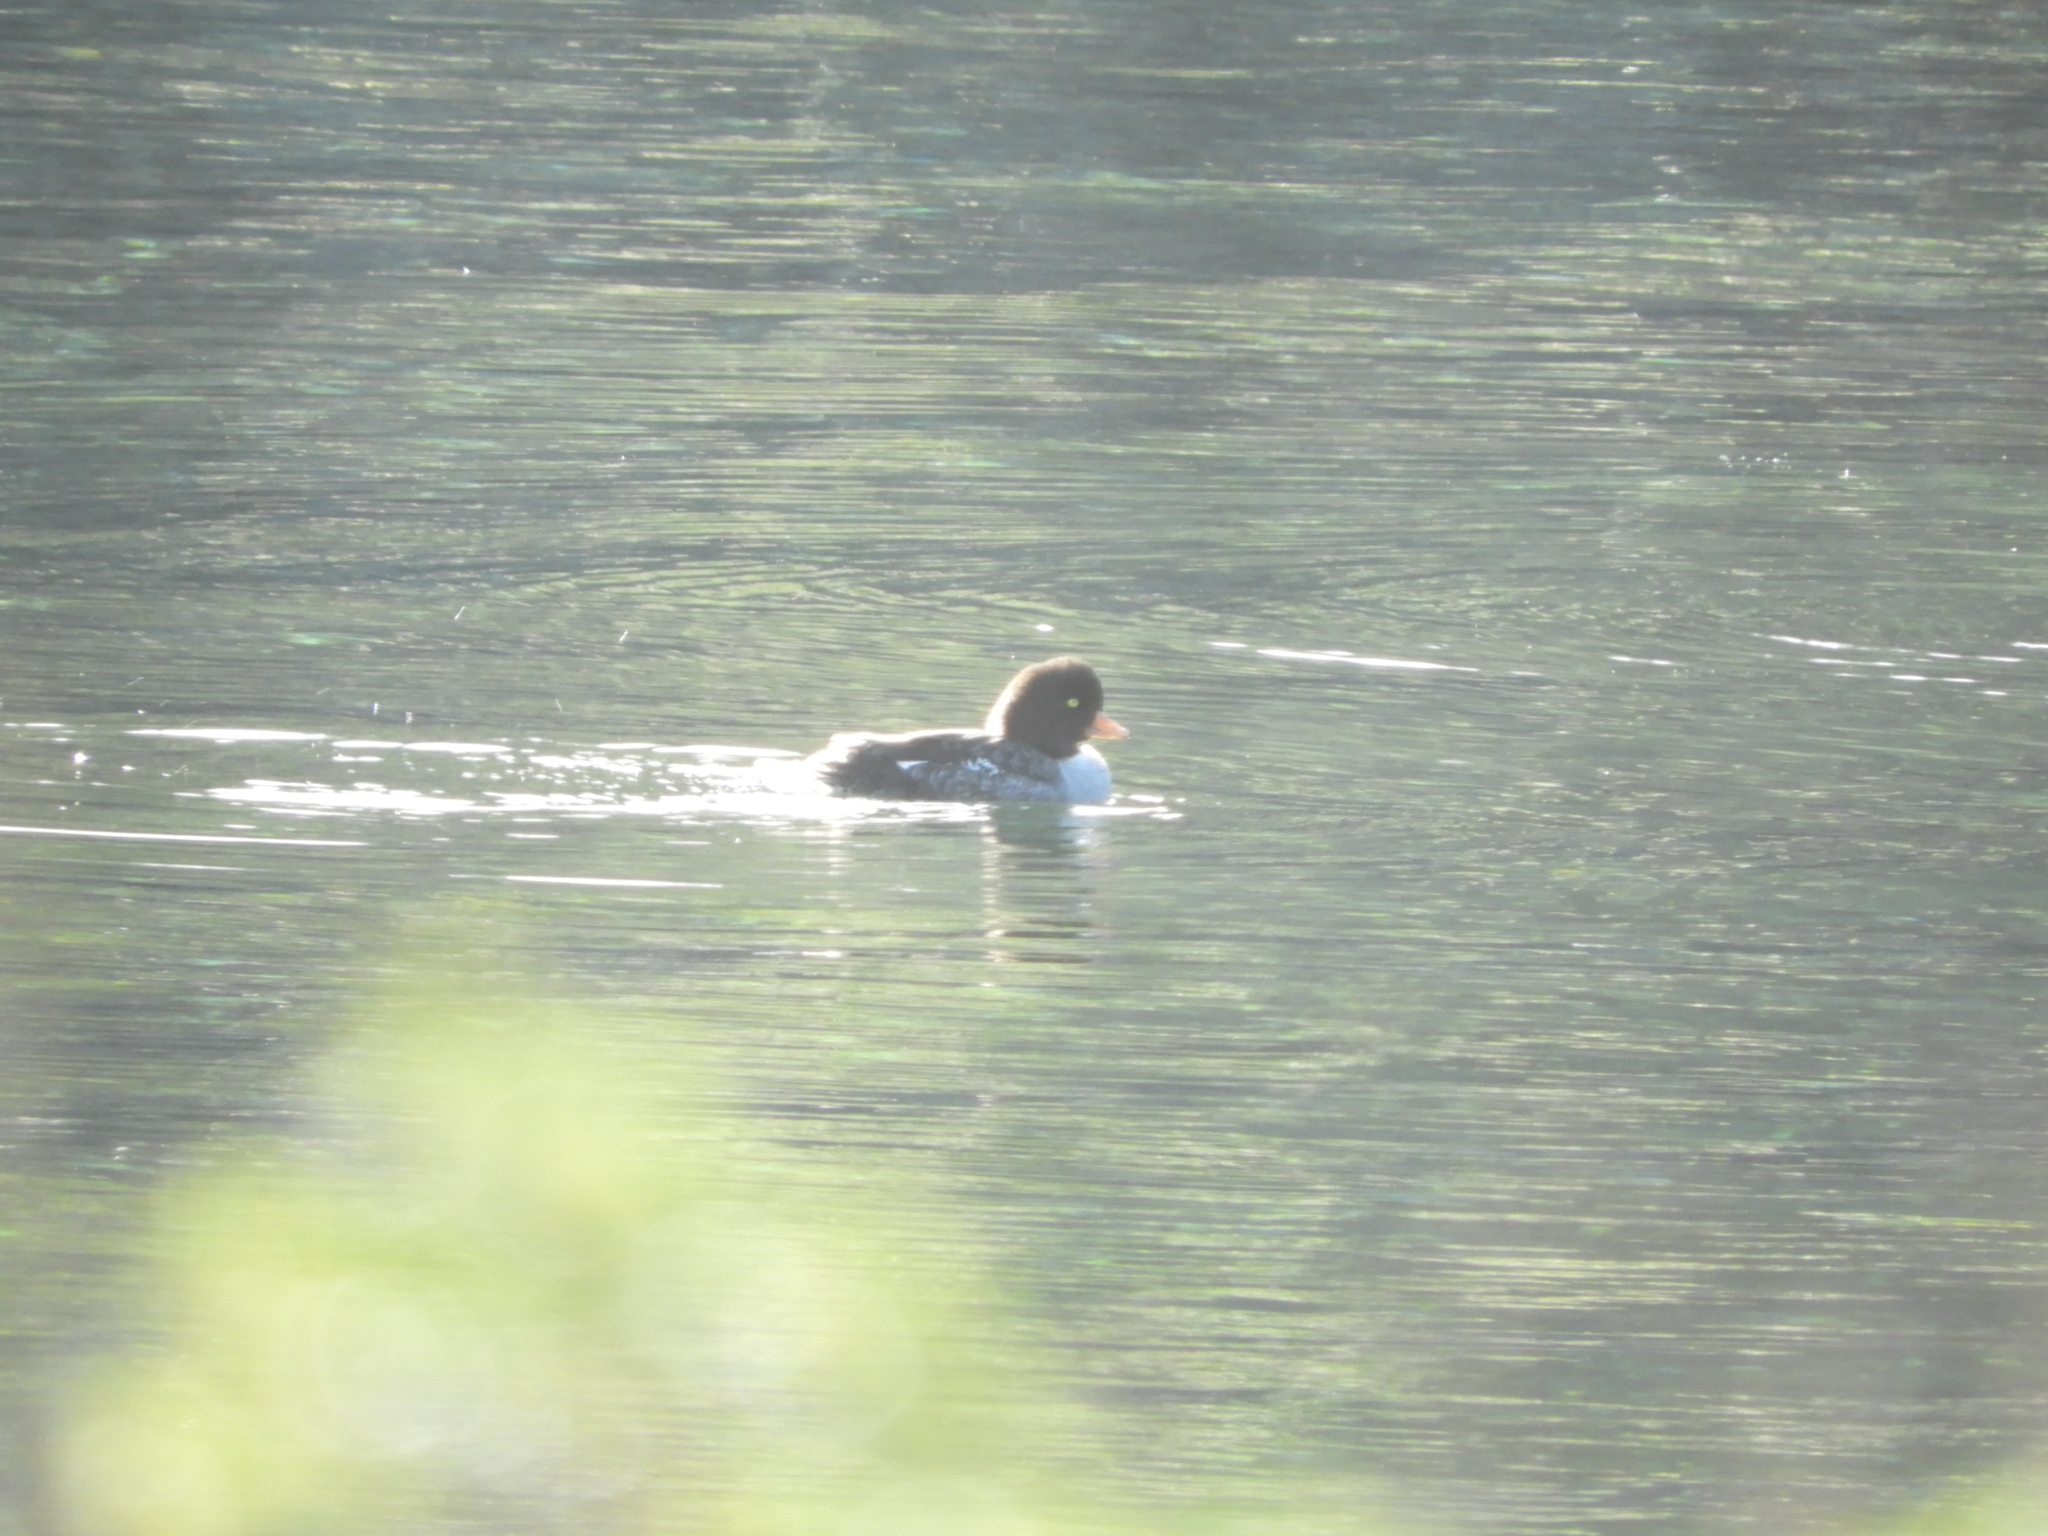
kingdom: Animalia
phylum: Chordata
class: Aves
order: Anseriformes
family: Anatidae
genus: Bucephala
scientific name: Bucephala islandica
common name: Barrow's goldeneye
